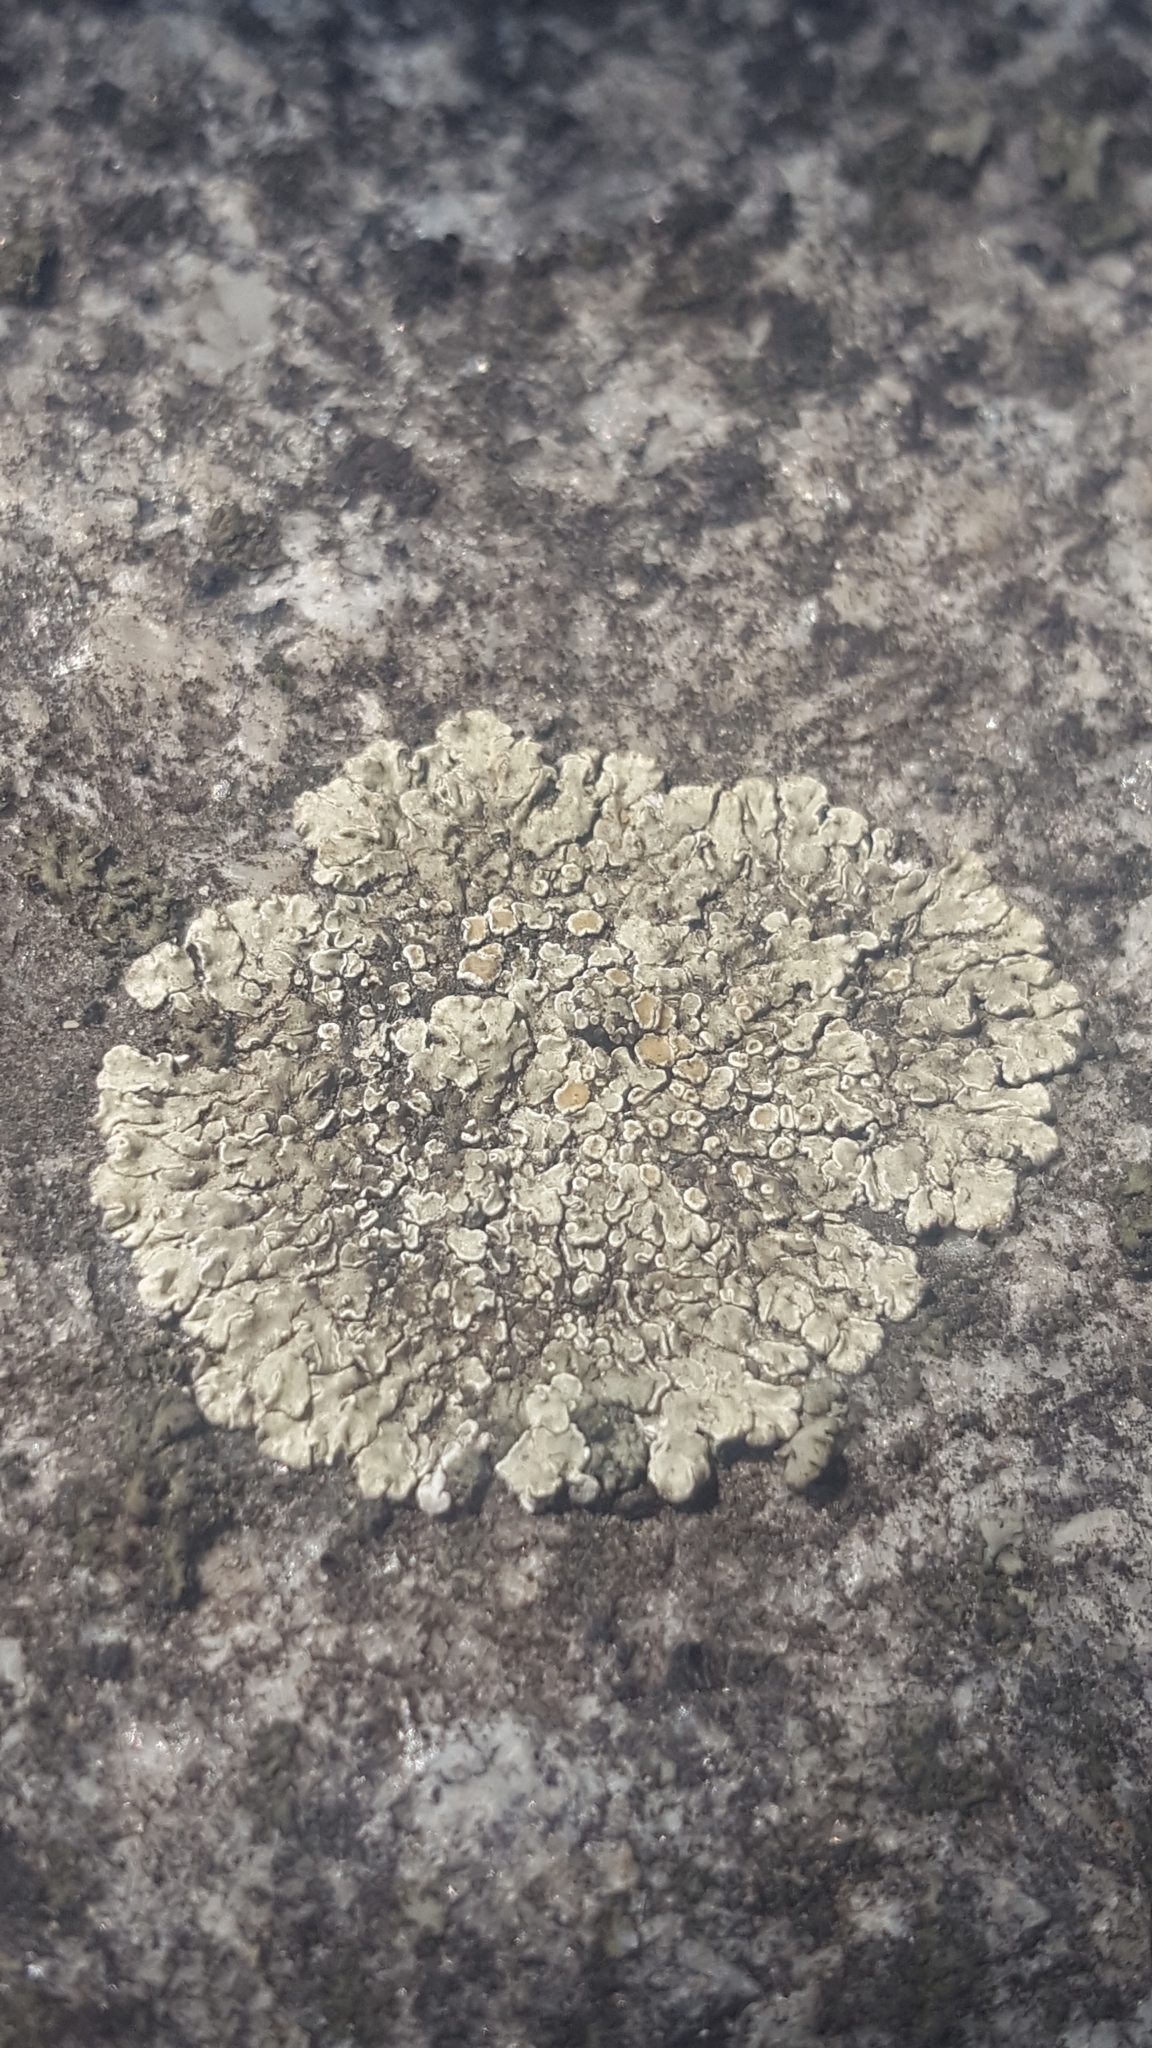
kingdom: Fungi
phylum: Ascomycota
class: Lecanoromycetes
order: Lecanorales
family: Lecanoraceae
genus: Protoparmeliopsis
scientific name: Protoparmeliopsis muralis
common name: Stonewall rim lichen
